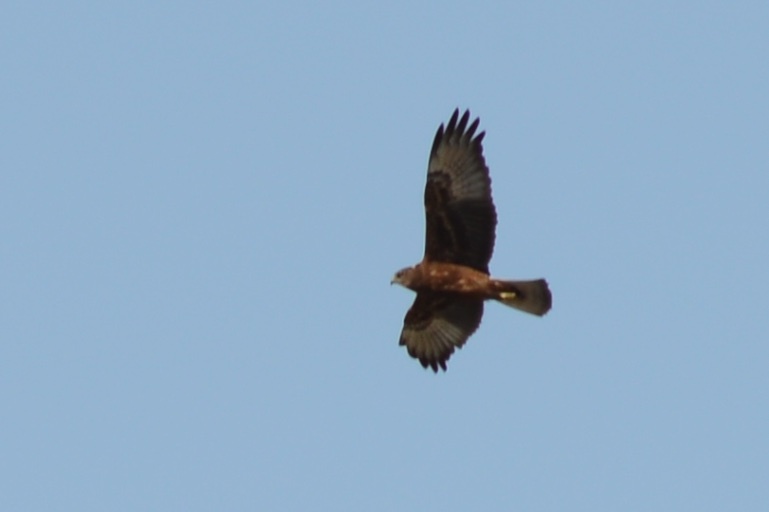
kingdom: Animalia
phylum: Chordata
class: Aves
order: Accipitriformes
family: Accipitridae
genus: Circus
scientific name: Circus approximans
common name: Swamp harrier
